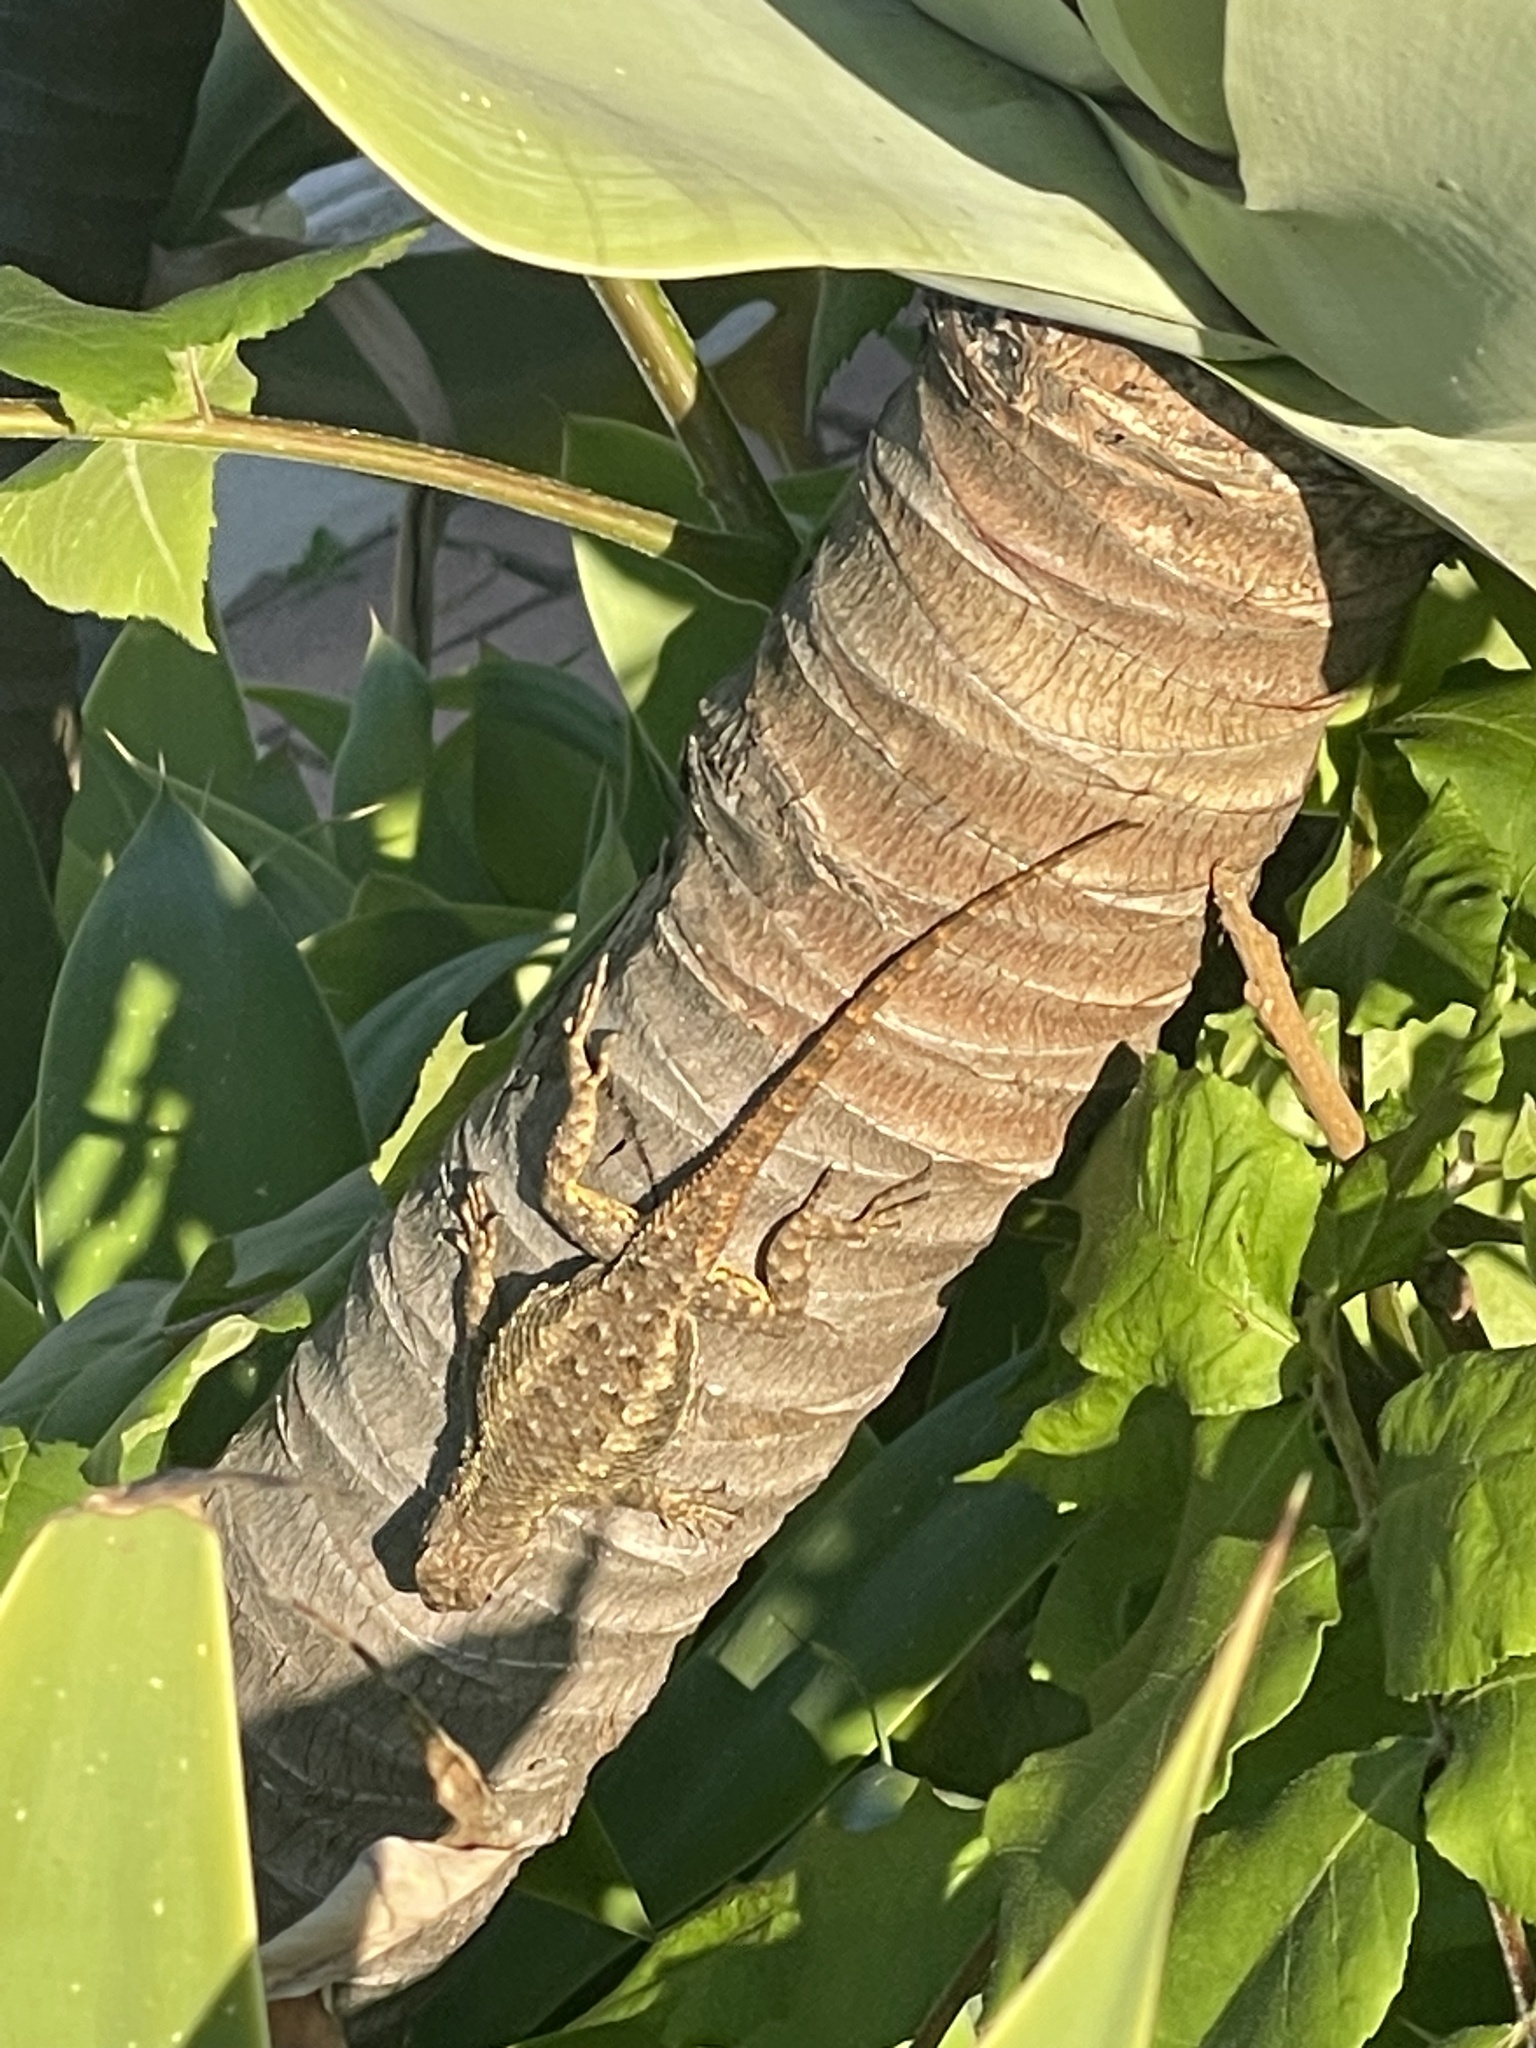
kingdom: Animalia
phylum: Chordata
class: Squamata
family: Phrynosomatidae
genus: Sceloporus
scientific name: Sceloporus occidentalis
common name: Western fence lizard
